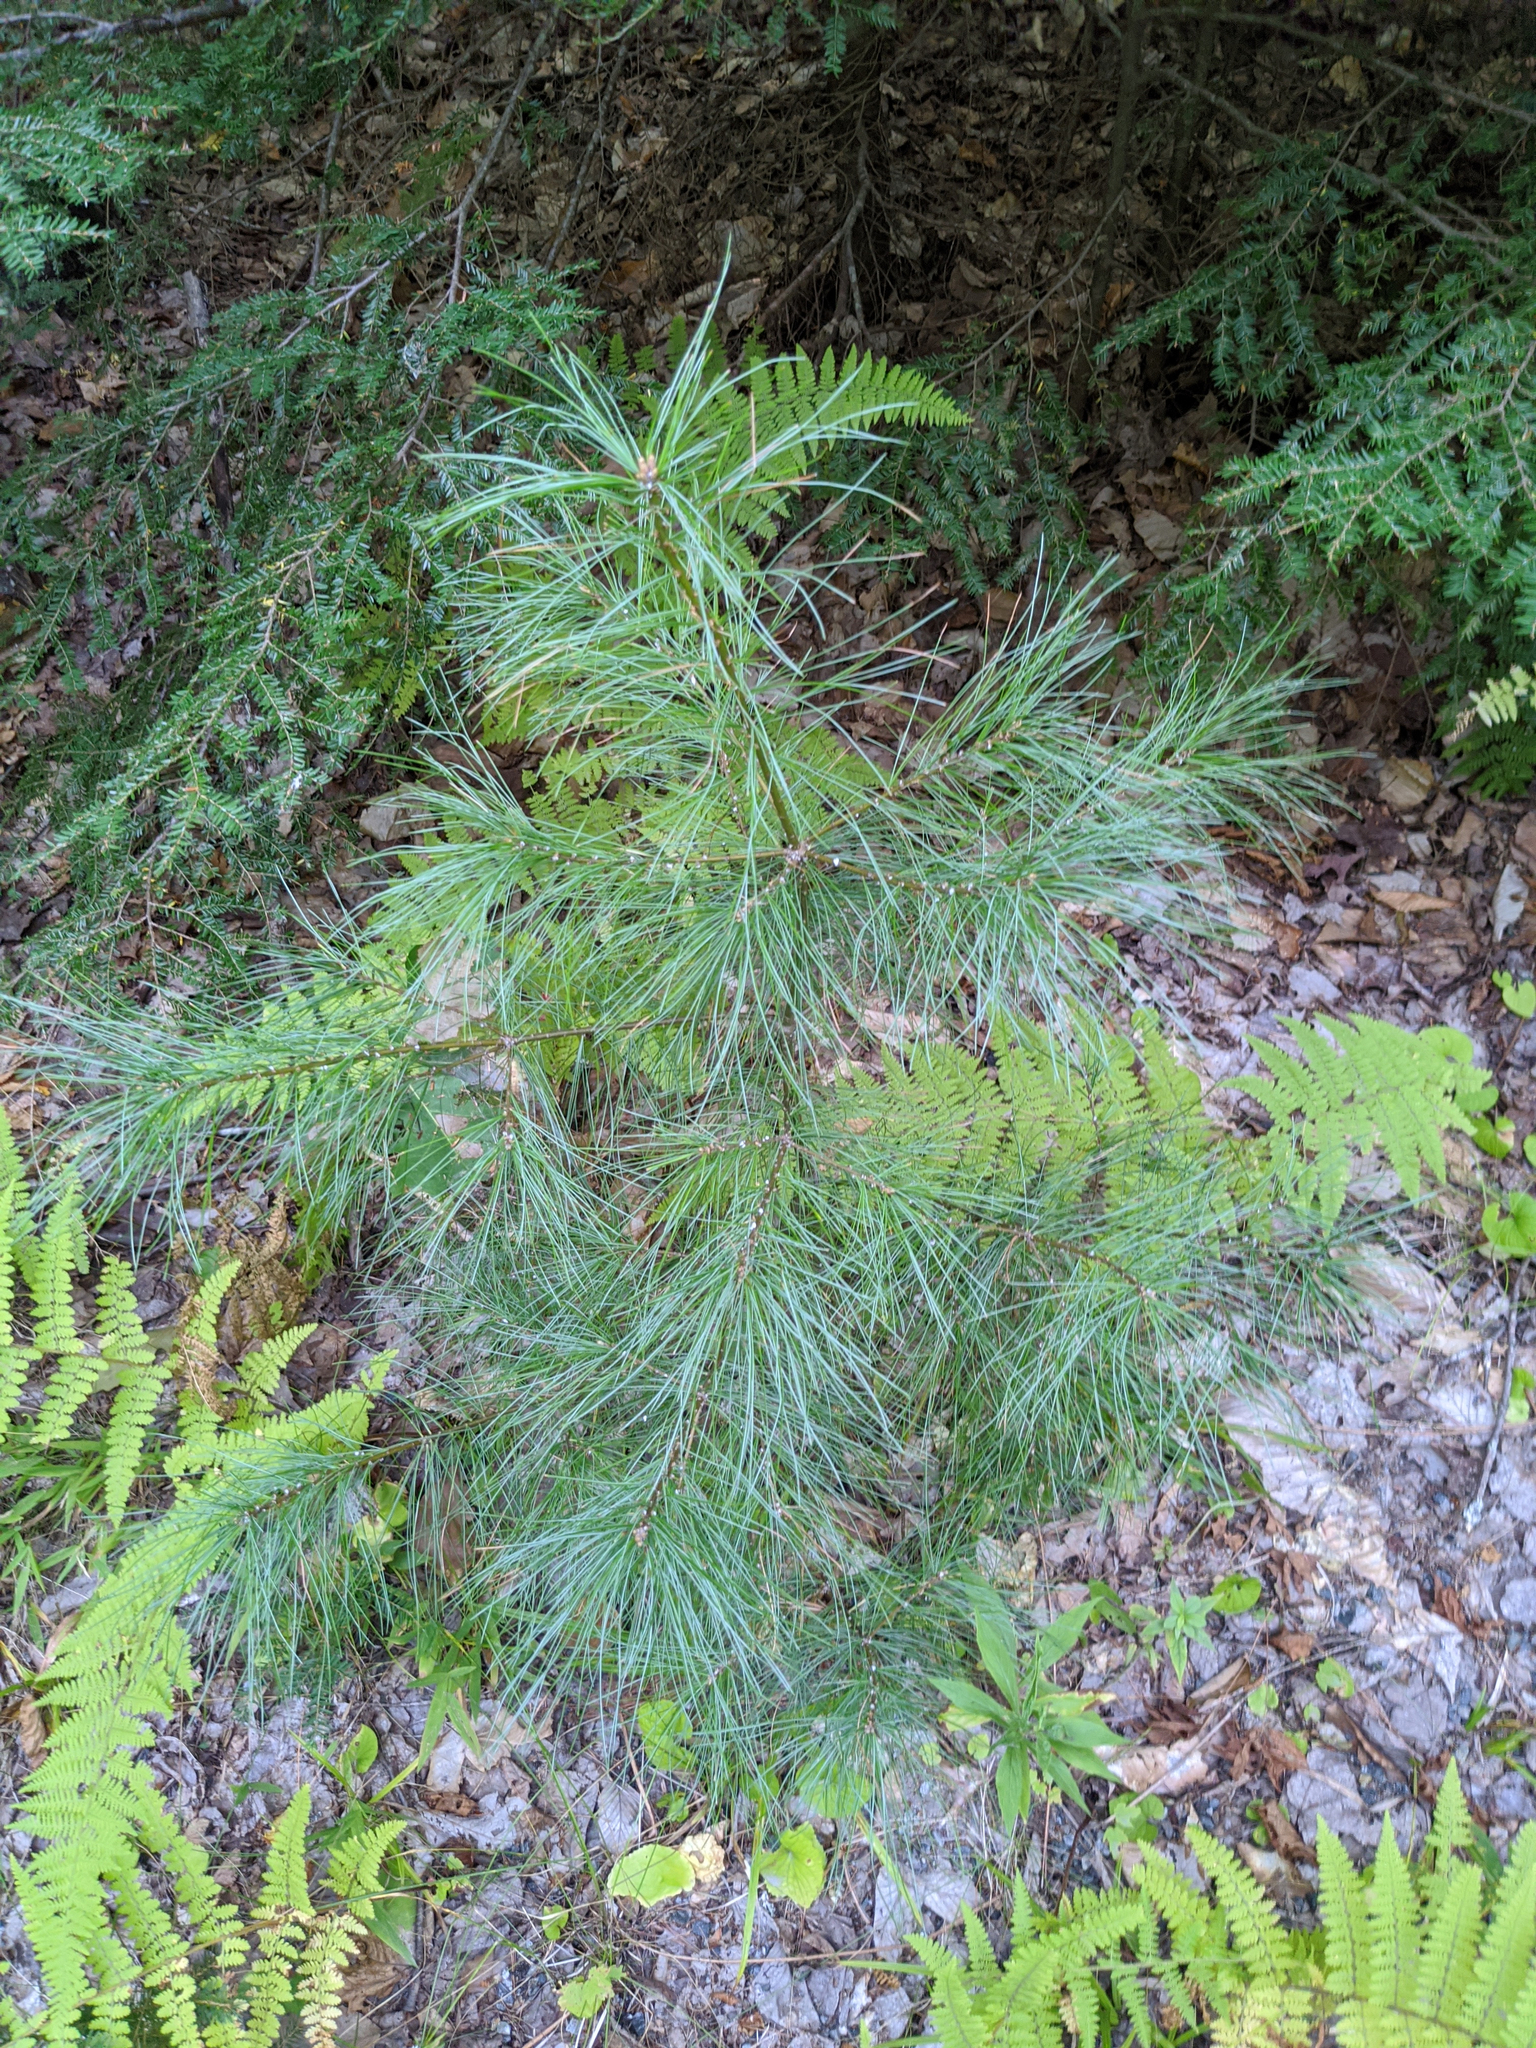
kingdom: Plantae
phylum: Tracheophyta
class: Pinopsida
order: Pinales
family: Pinaceae
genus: Pinus
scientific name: Pinus strobus
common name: Weymouth pine
